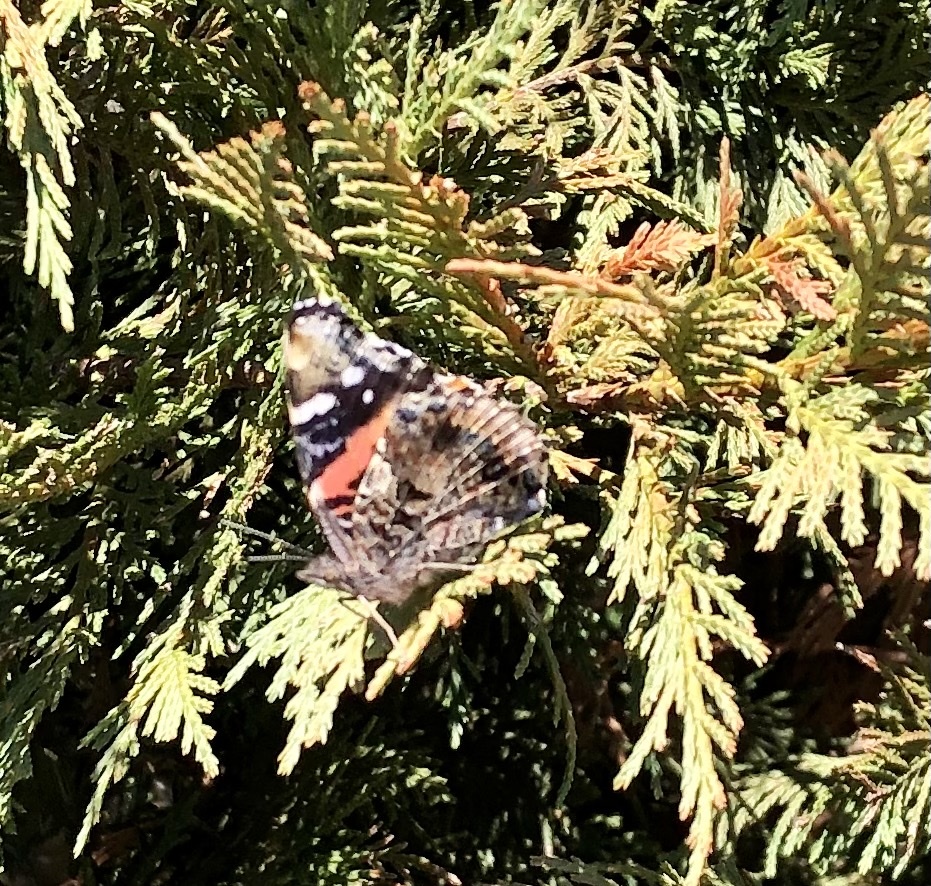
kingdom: Animalia
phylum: Arthropoda
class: Insecta
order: Lepidoptera
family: Nymphalidae
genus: Vanessa
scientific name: Vanessa atalanta
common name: Red admiral
